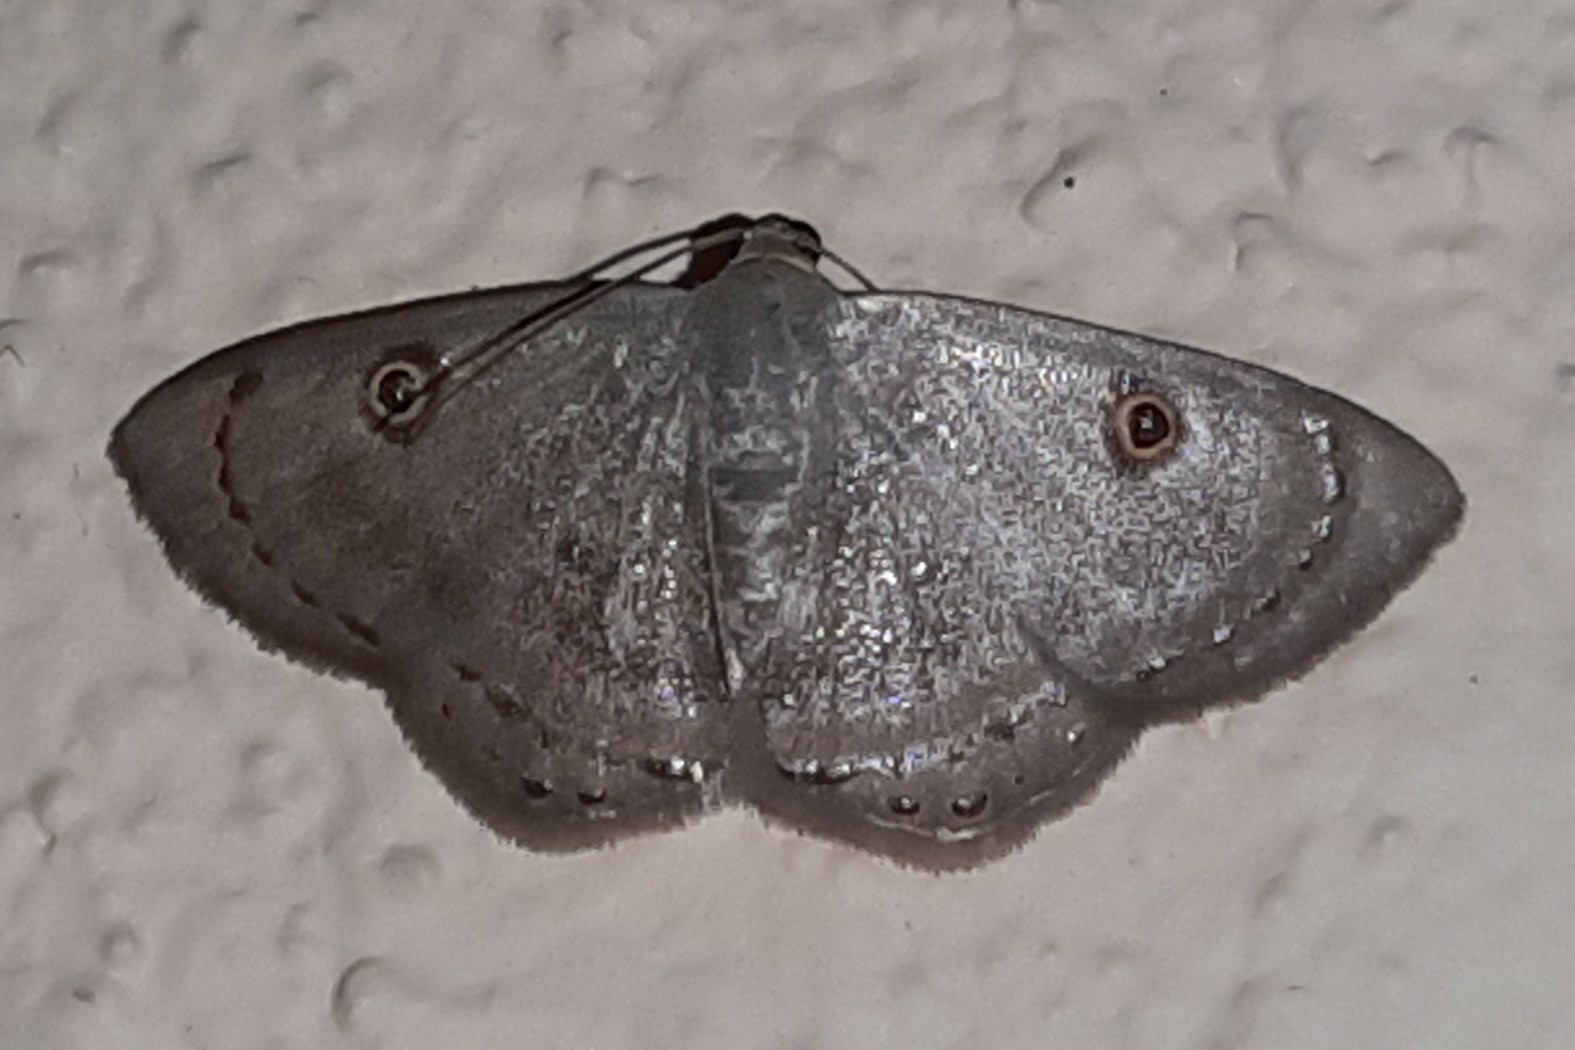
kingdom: Animalia
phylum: Arthropoda
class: Insecta
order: Lepidoptera
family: Geometridae
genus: Argyrotome
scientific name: Argyrotome melae
